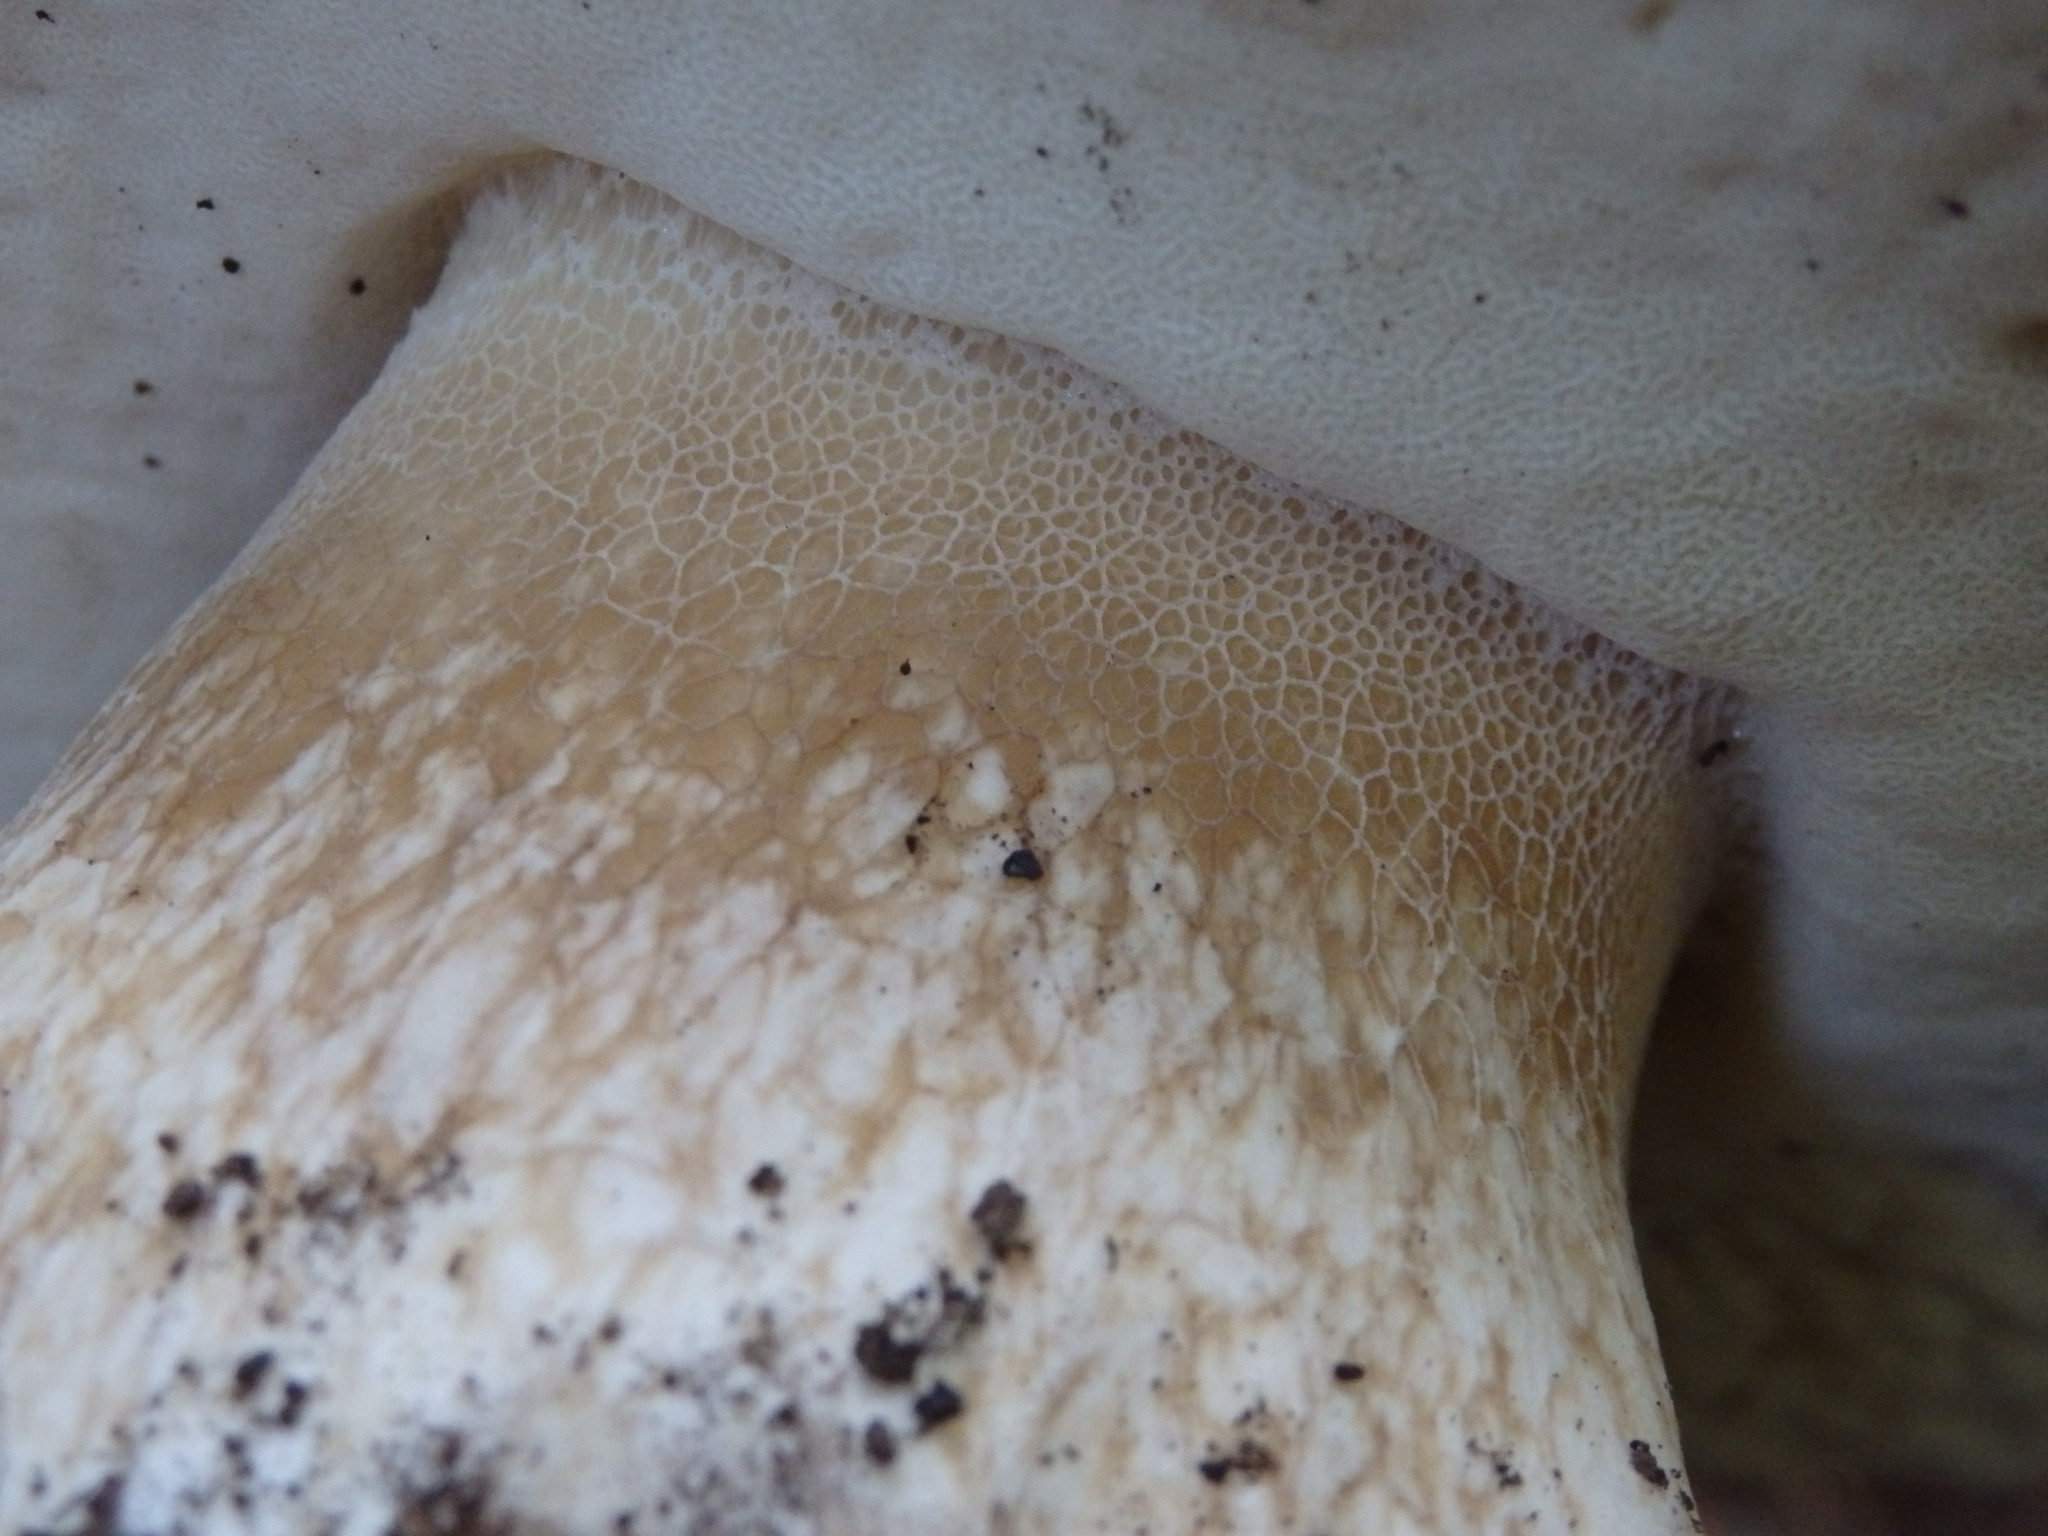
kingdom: Fungi
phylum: Basidiomycota
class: Agaricomycetes
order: Boletales
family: Boletaceae
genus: Boletus
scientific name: Boletus edulis
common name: Cep
